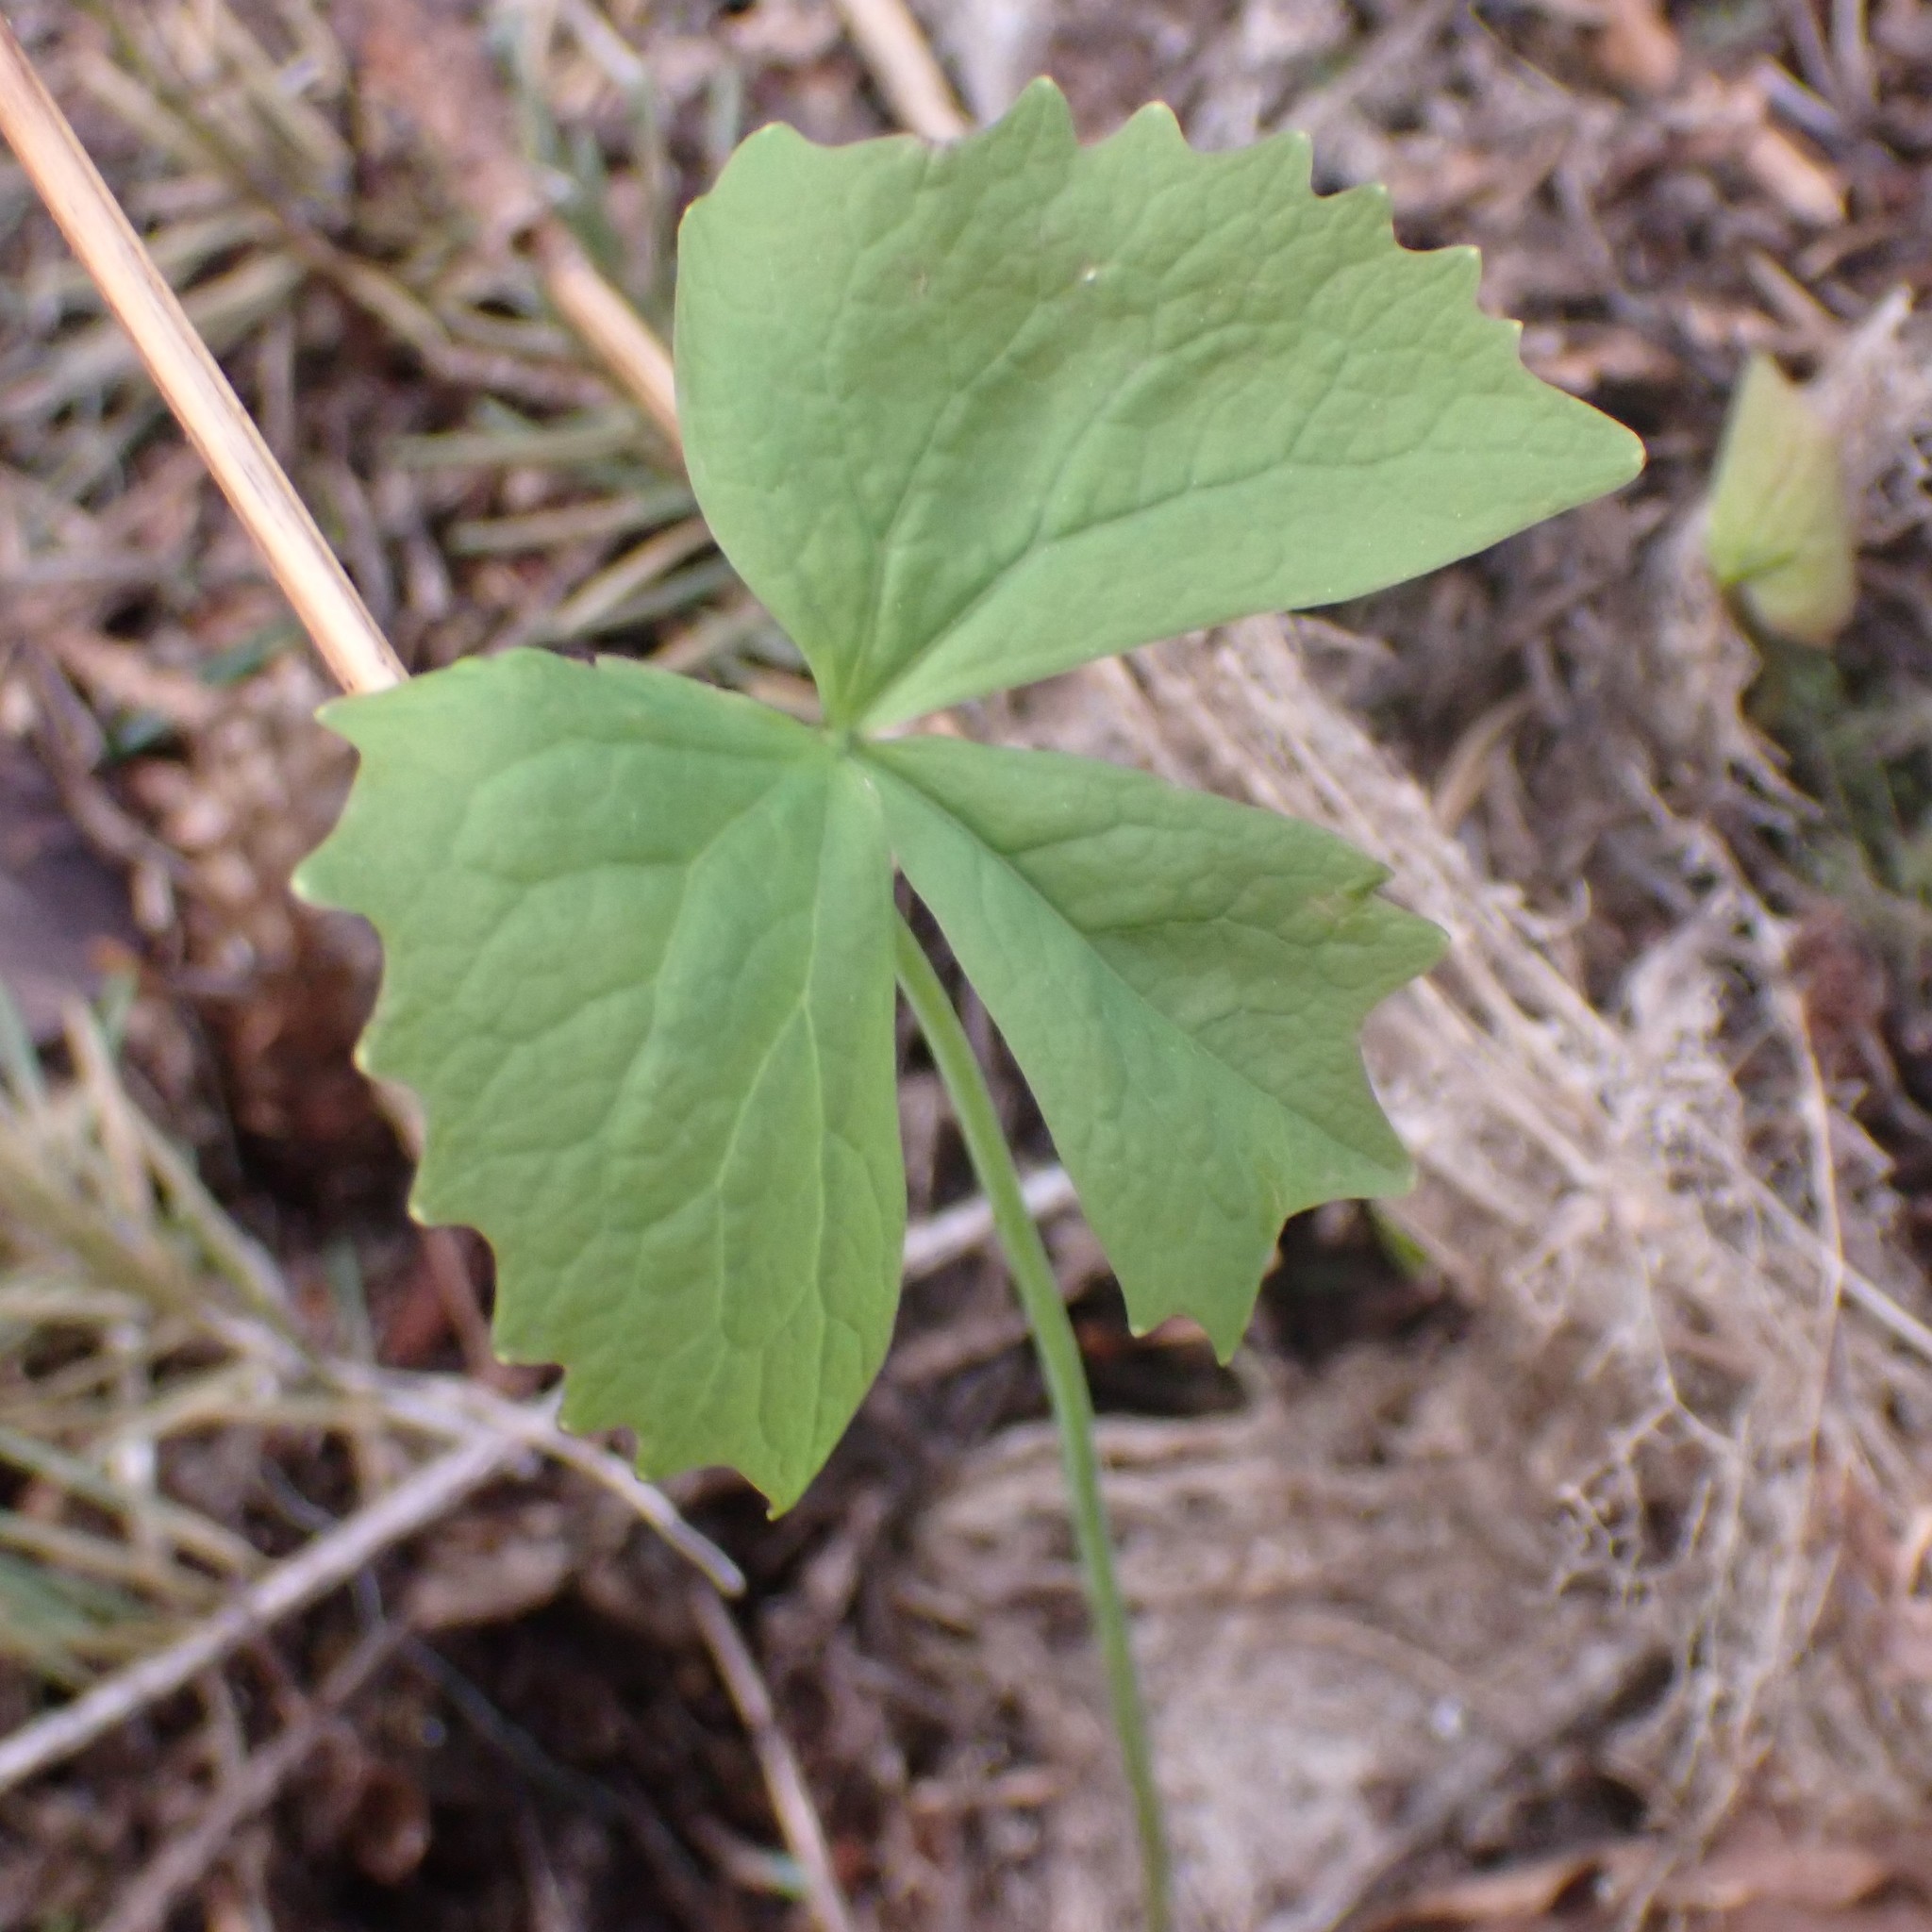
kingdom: Plantae
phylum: Tracheophyta
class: Magnoliopsida
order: Ranunculales
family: Berberidaceae
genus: Achlys
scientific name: Achlys triphylla
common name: Vanilla-leaf
